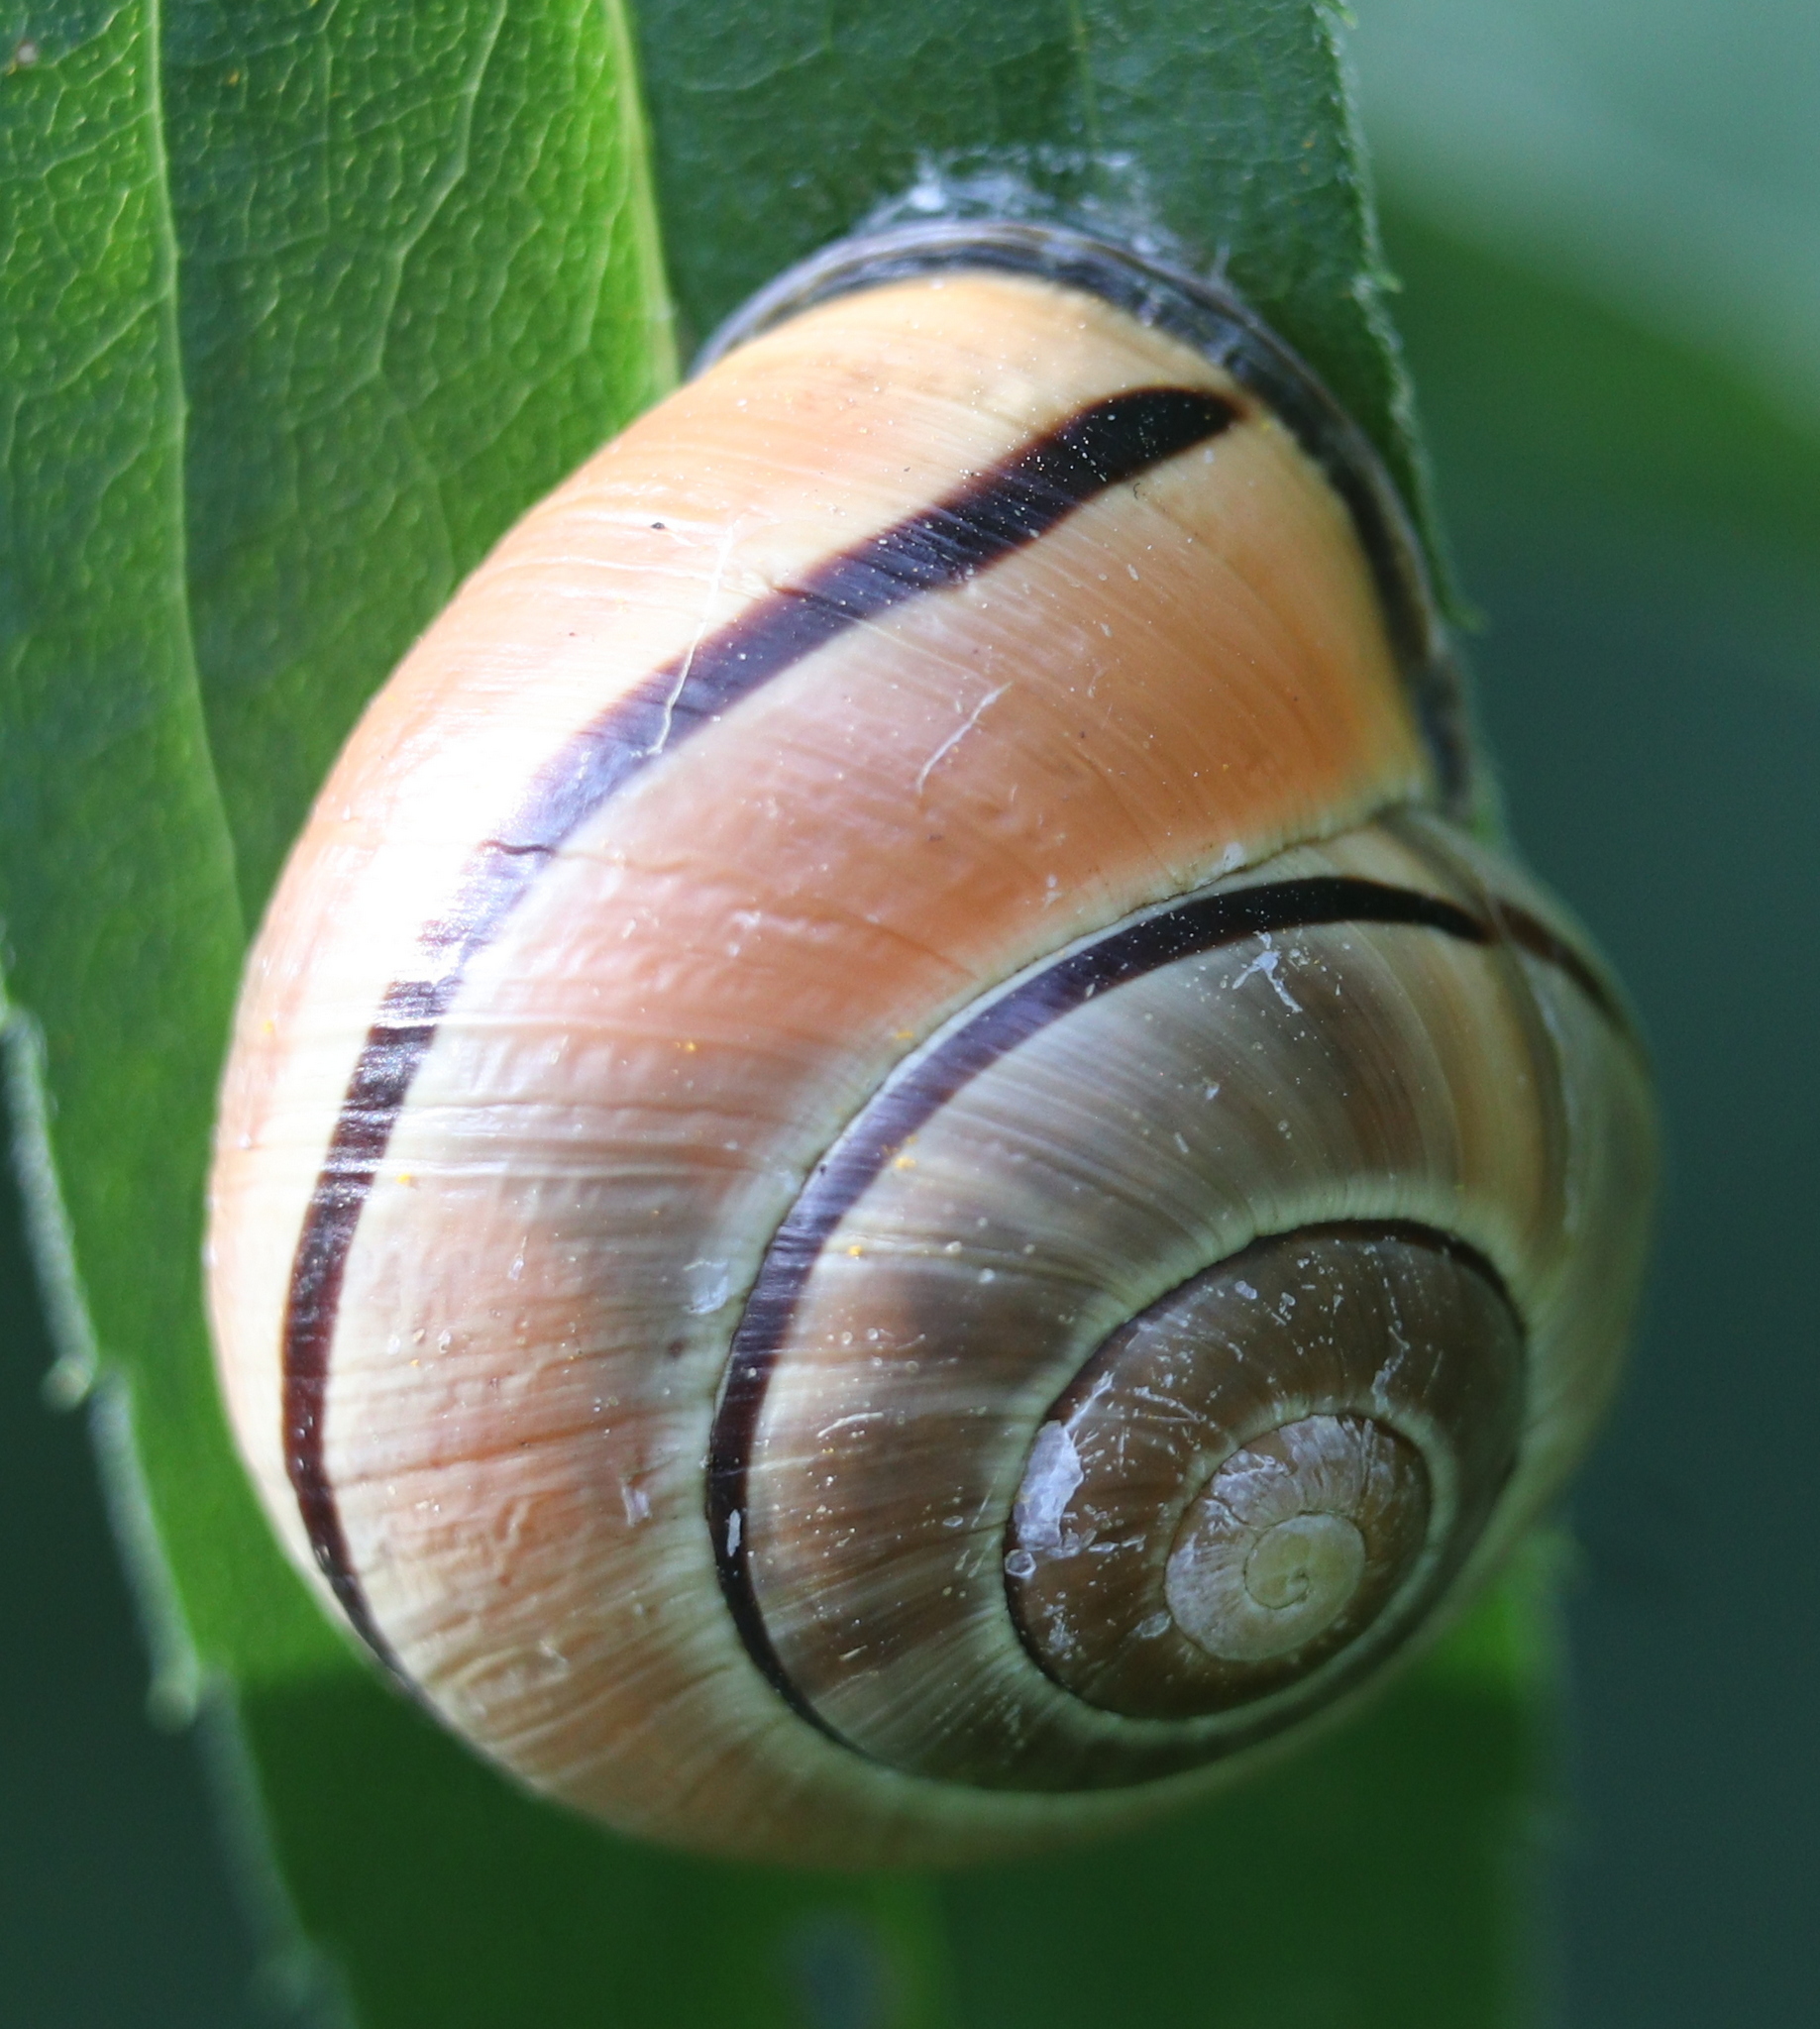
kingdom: Animalia
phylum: Mollusca
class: Gastropoda
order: Stylommatophora
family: Helicidae
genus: Cepaea
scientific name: Cepaea nemoralis
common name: Grovesnail
